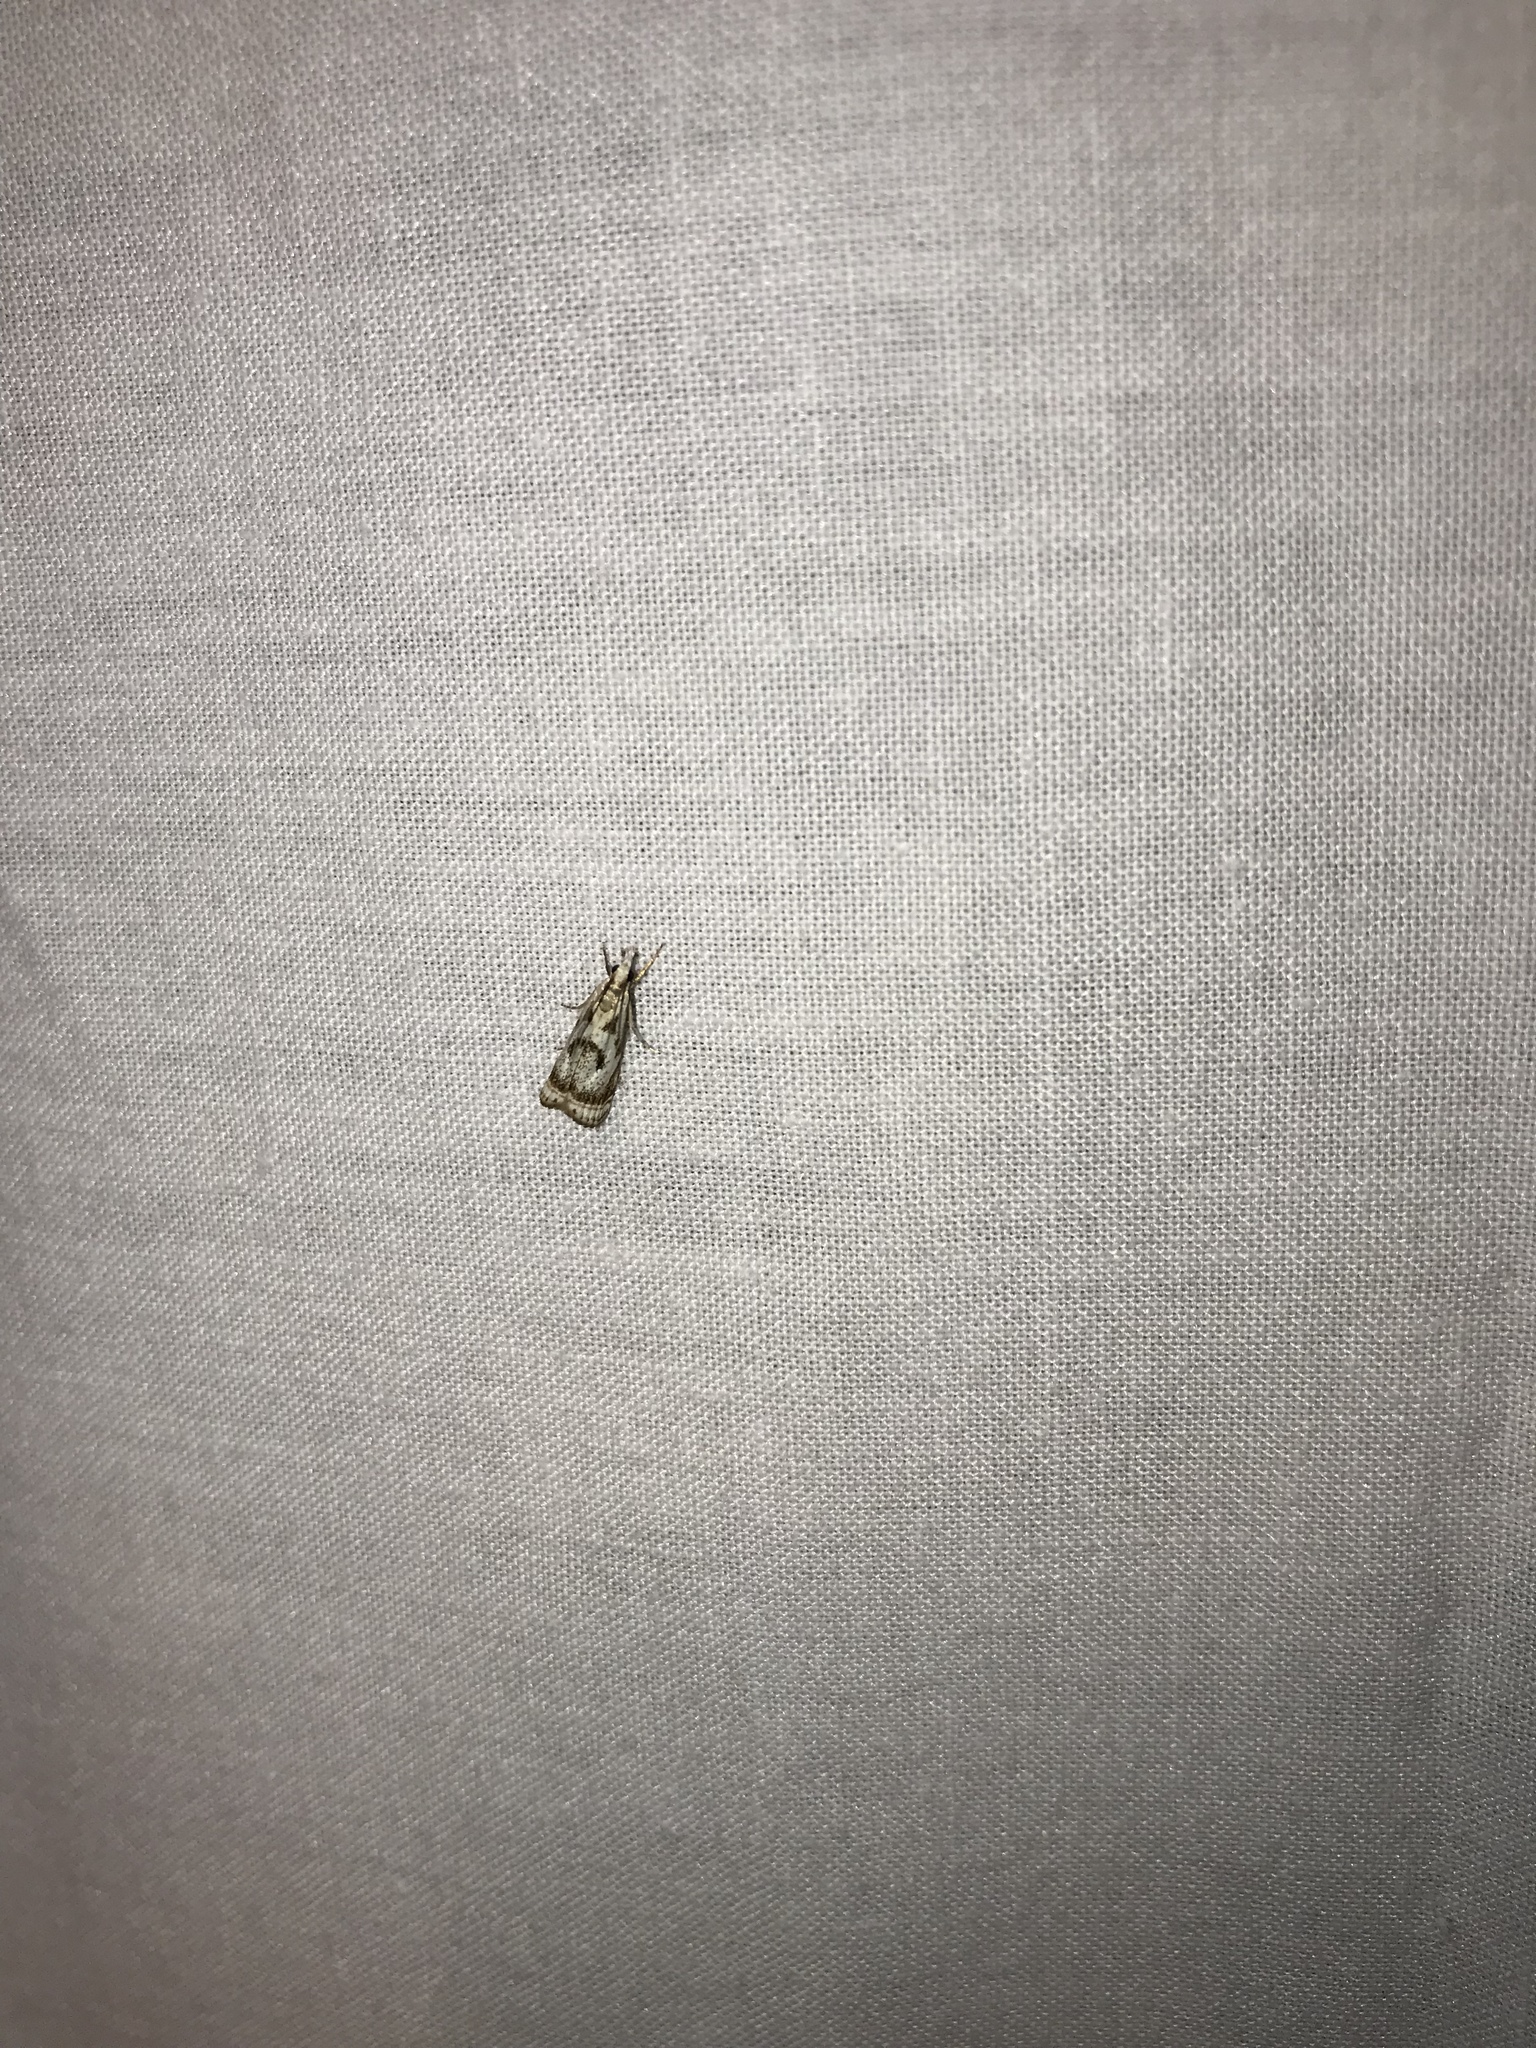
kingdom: Animalia
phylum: Arthropoda
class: Insecta
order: Lepidoptera
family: Crambidae
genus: Microcrambus
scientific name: Microcrambus elegans
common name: Elegant grass-veneer
